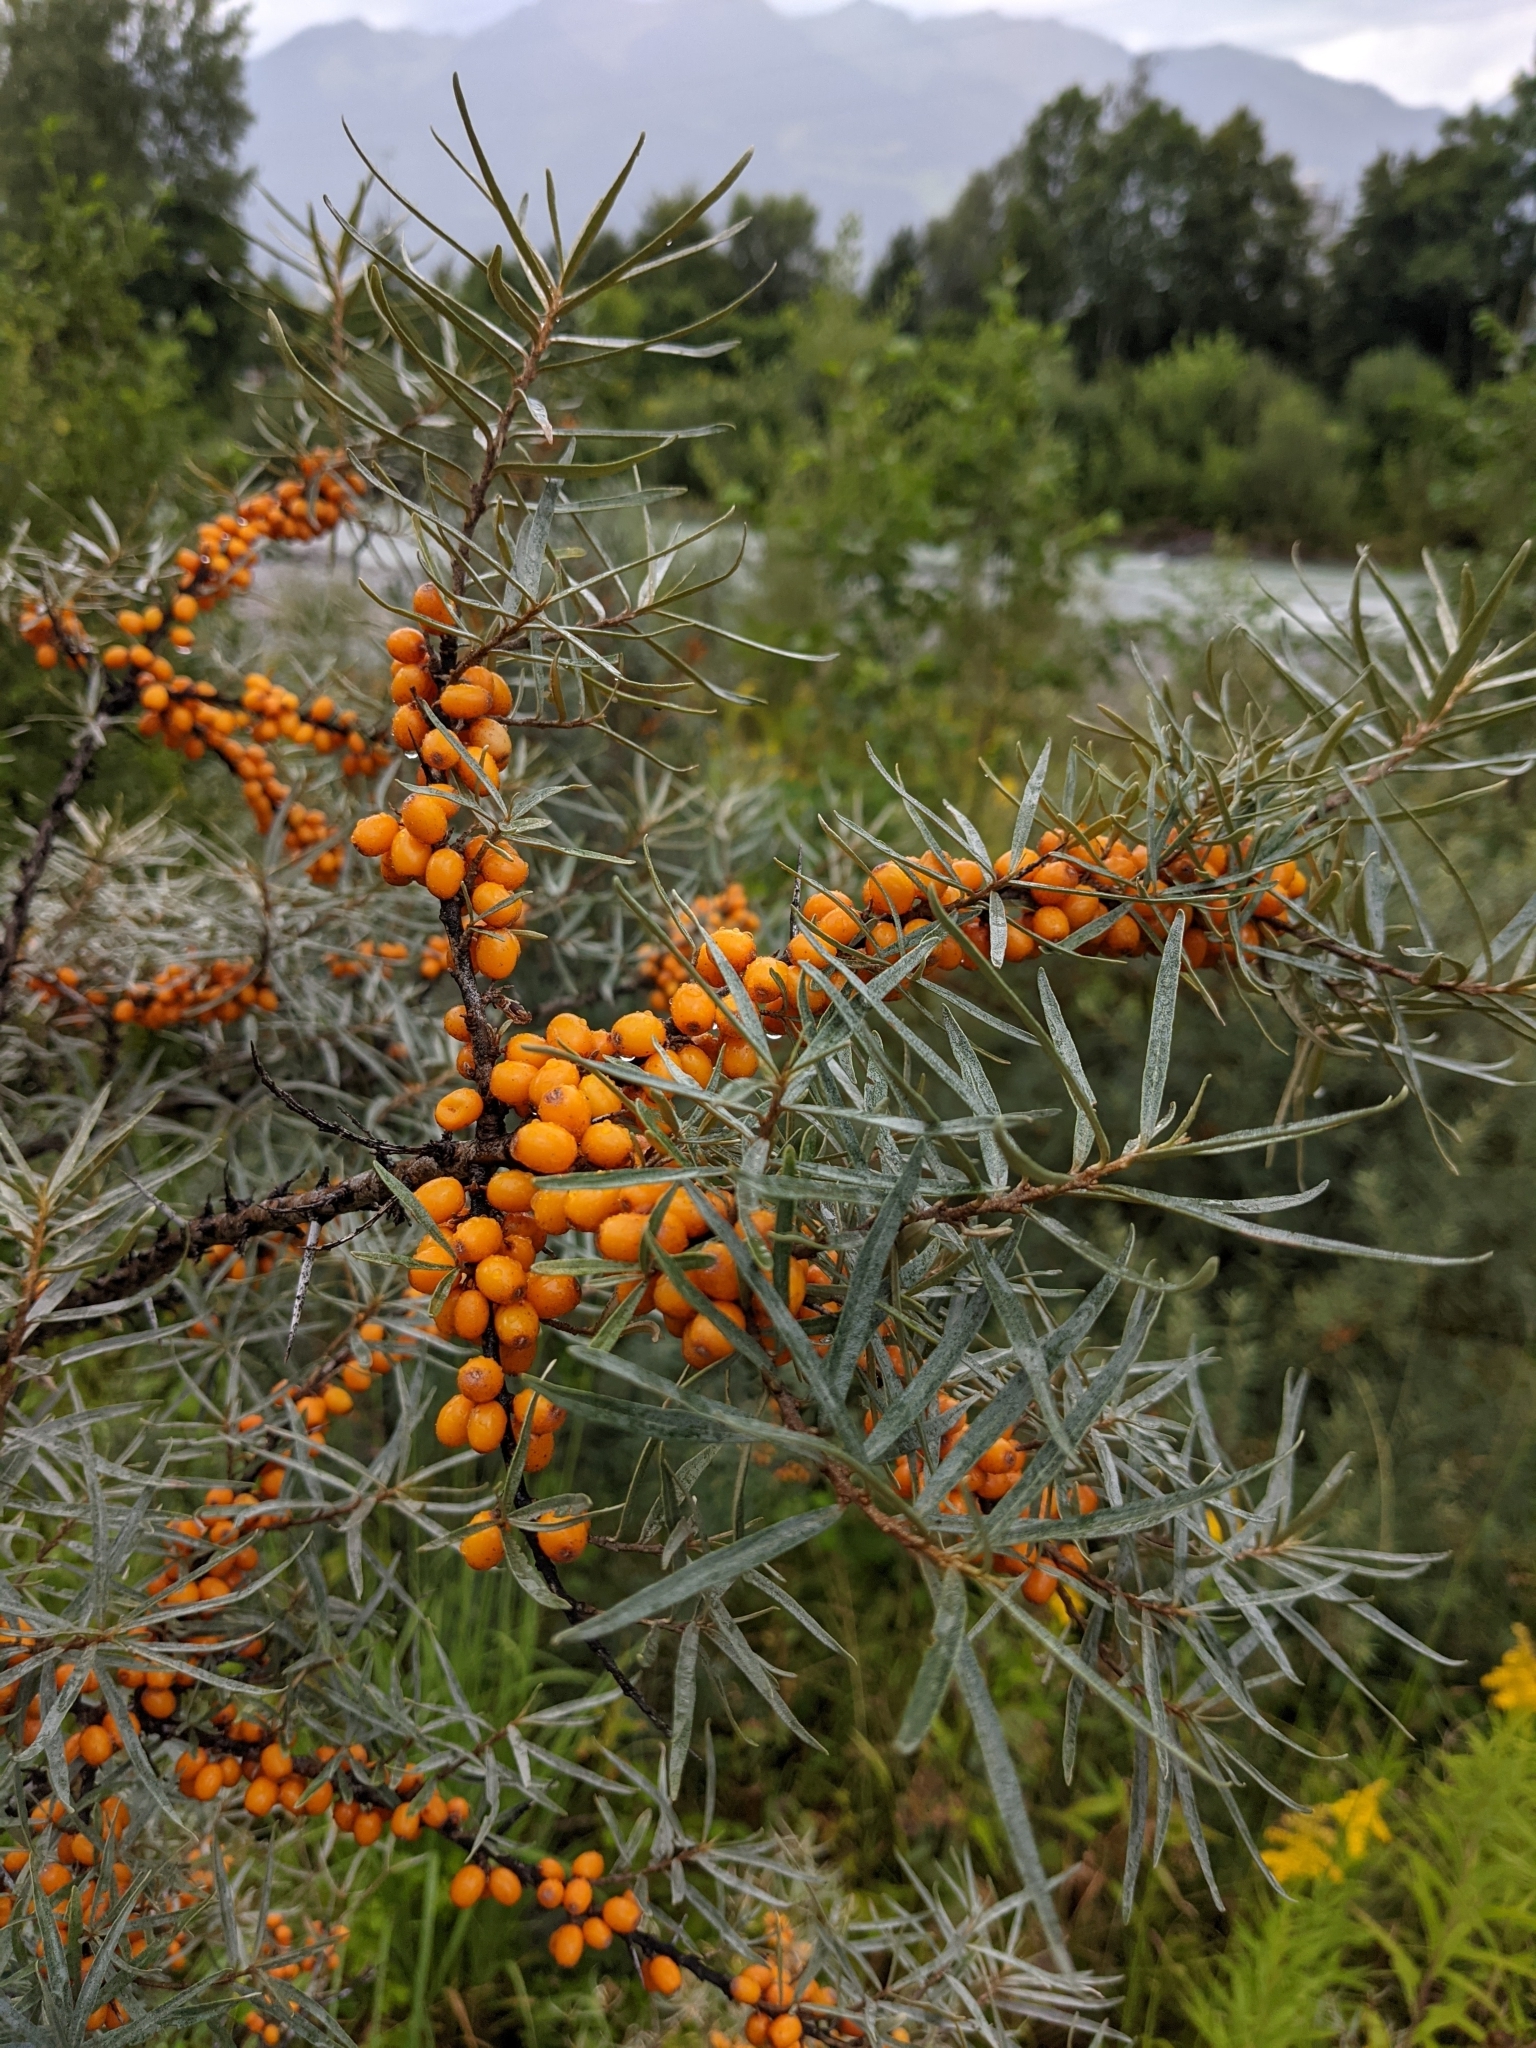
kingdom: Plantae
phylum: Tracheophyta
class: Magnoliopsida
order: Rosales
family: Elaeagnaceae
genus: Hippophae
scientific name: Hippophae rhamnoides
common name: Sea-buckthorn
